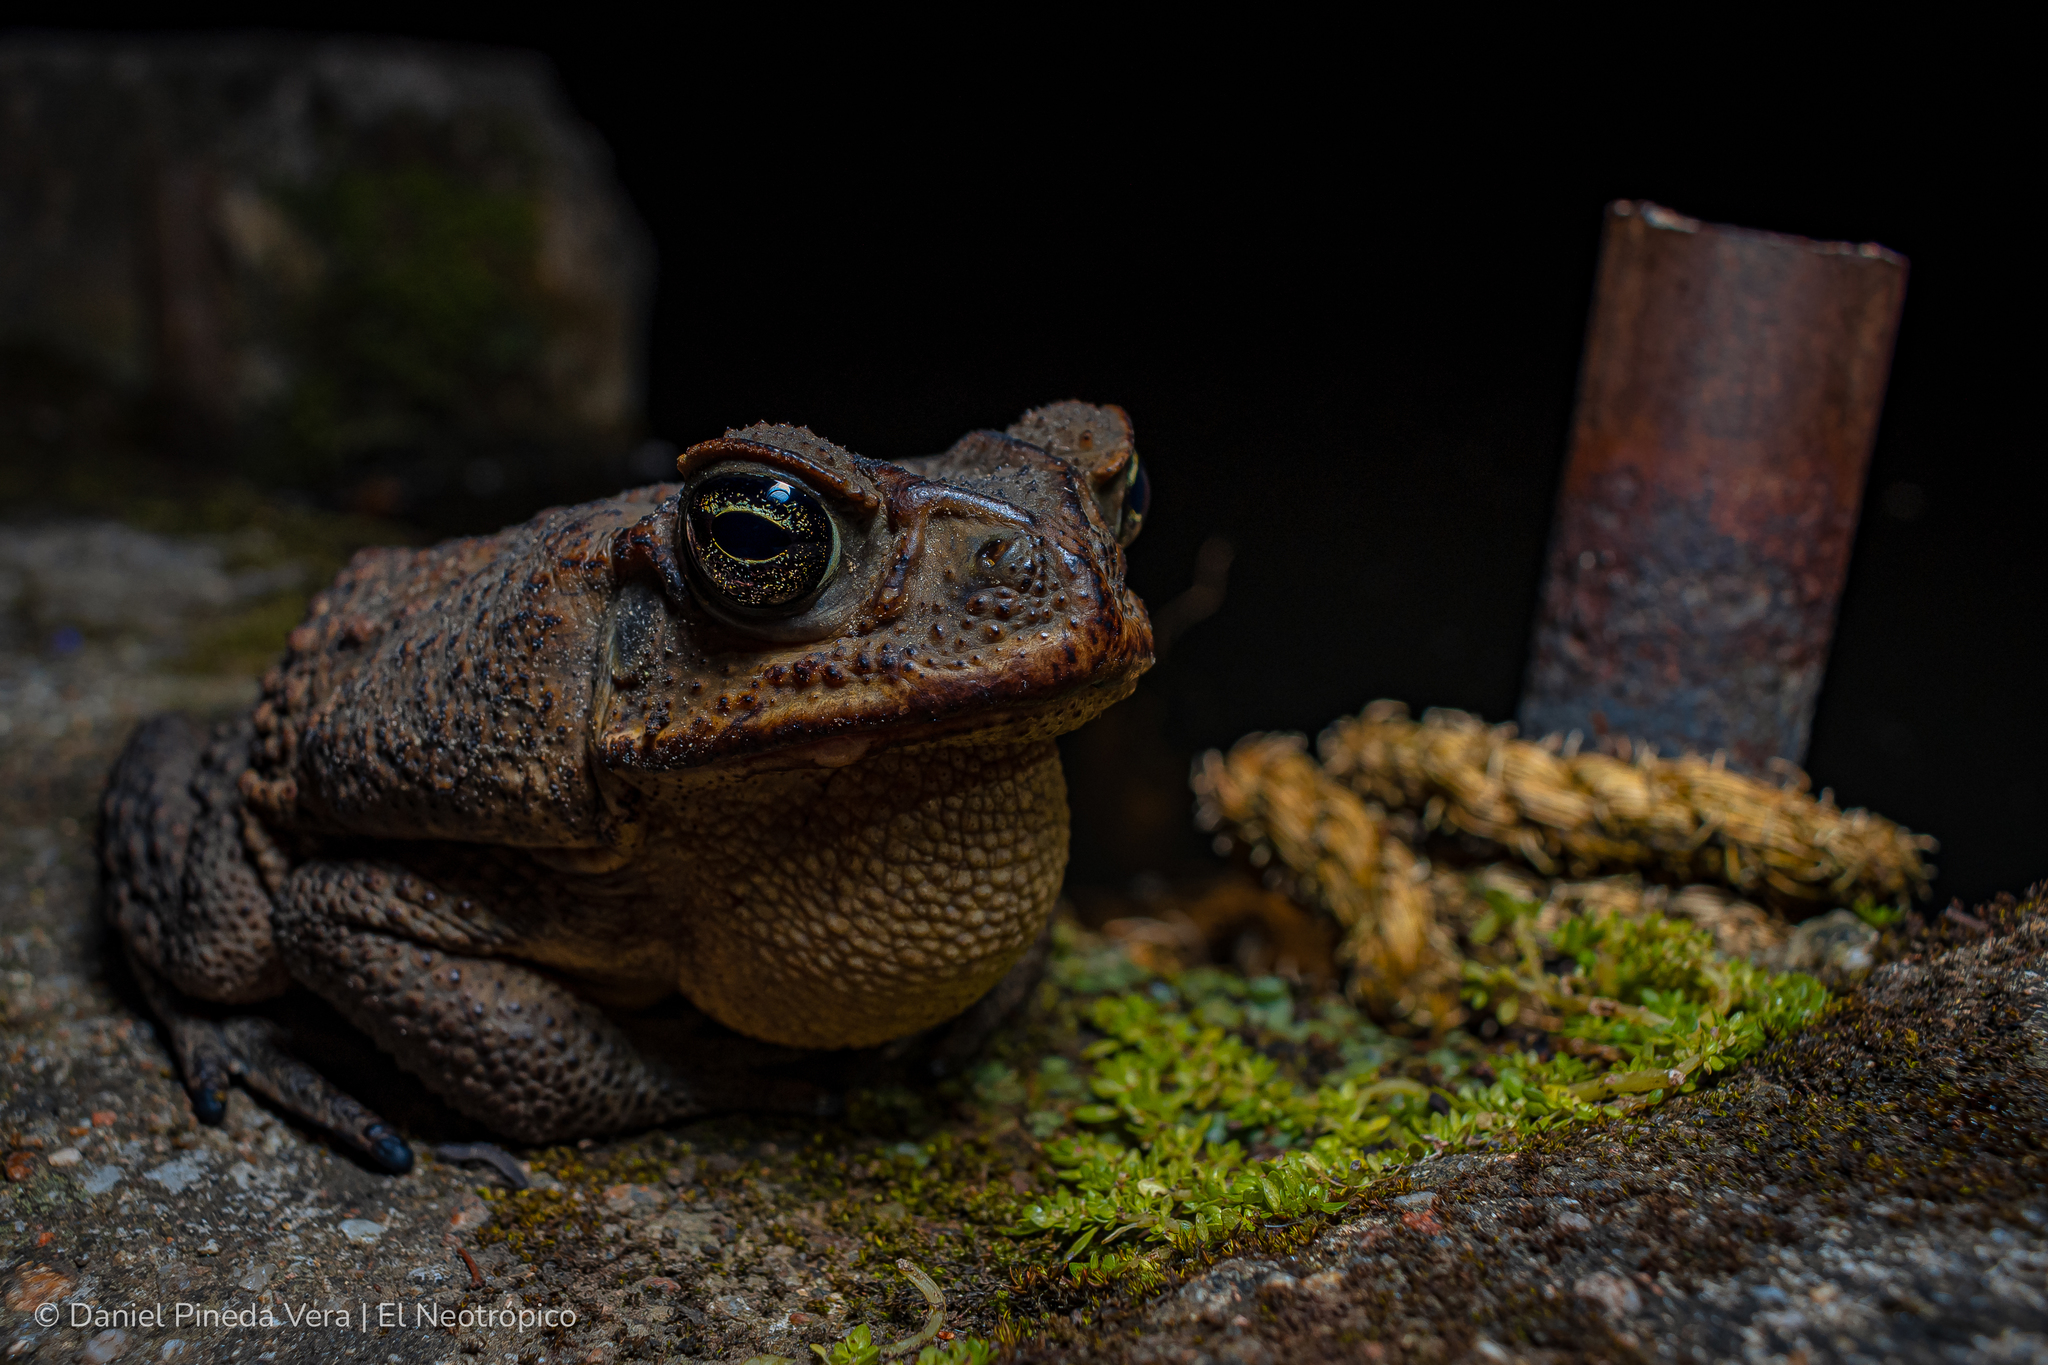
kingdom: Animalia
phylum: Chordata
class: Amphibia
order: Anura
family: Bufonidae
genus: Rhinella
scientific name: Rhinella horribilis
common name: Mesoamerican cane toad
